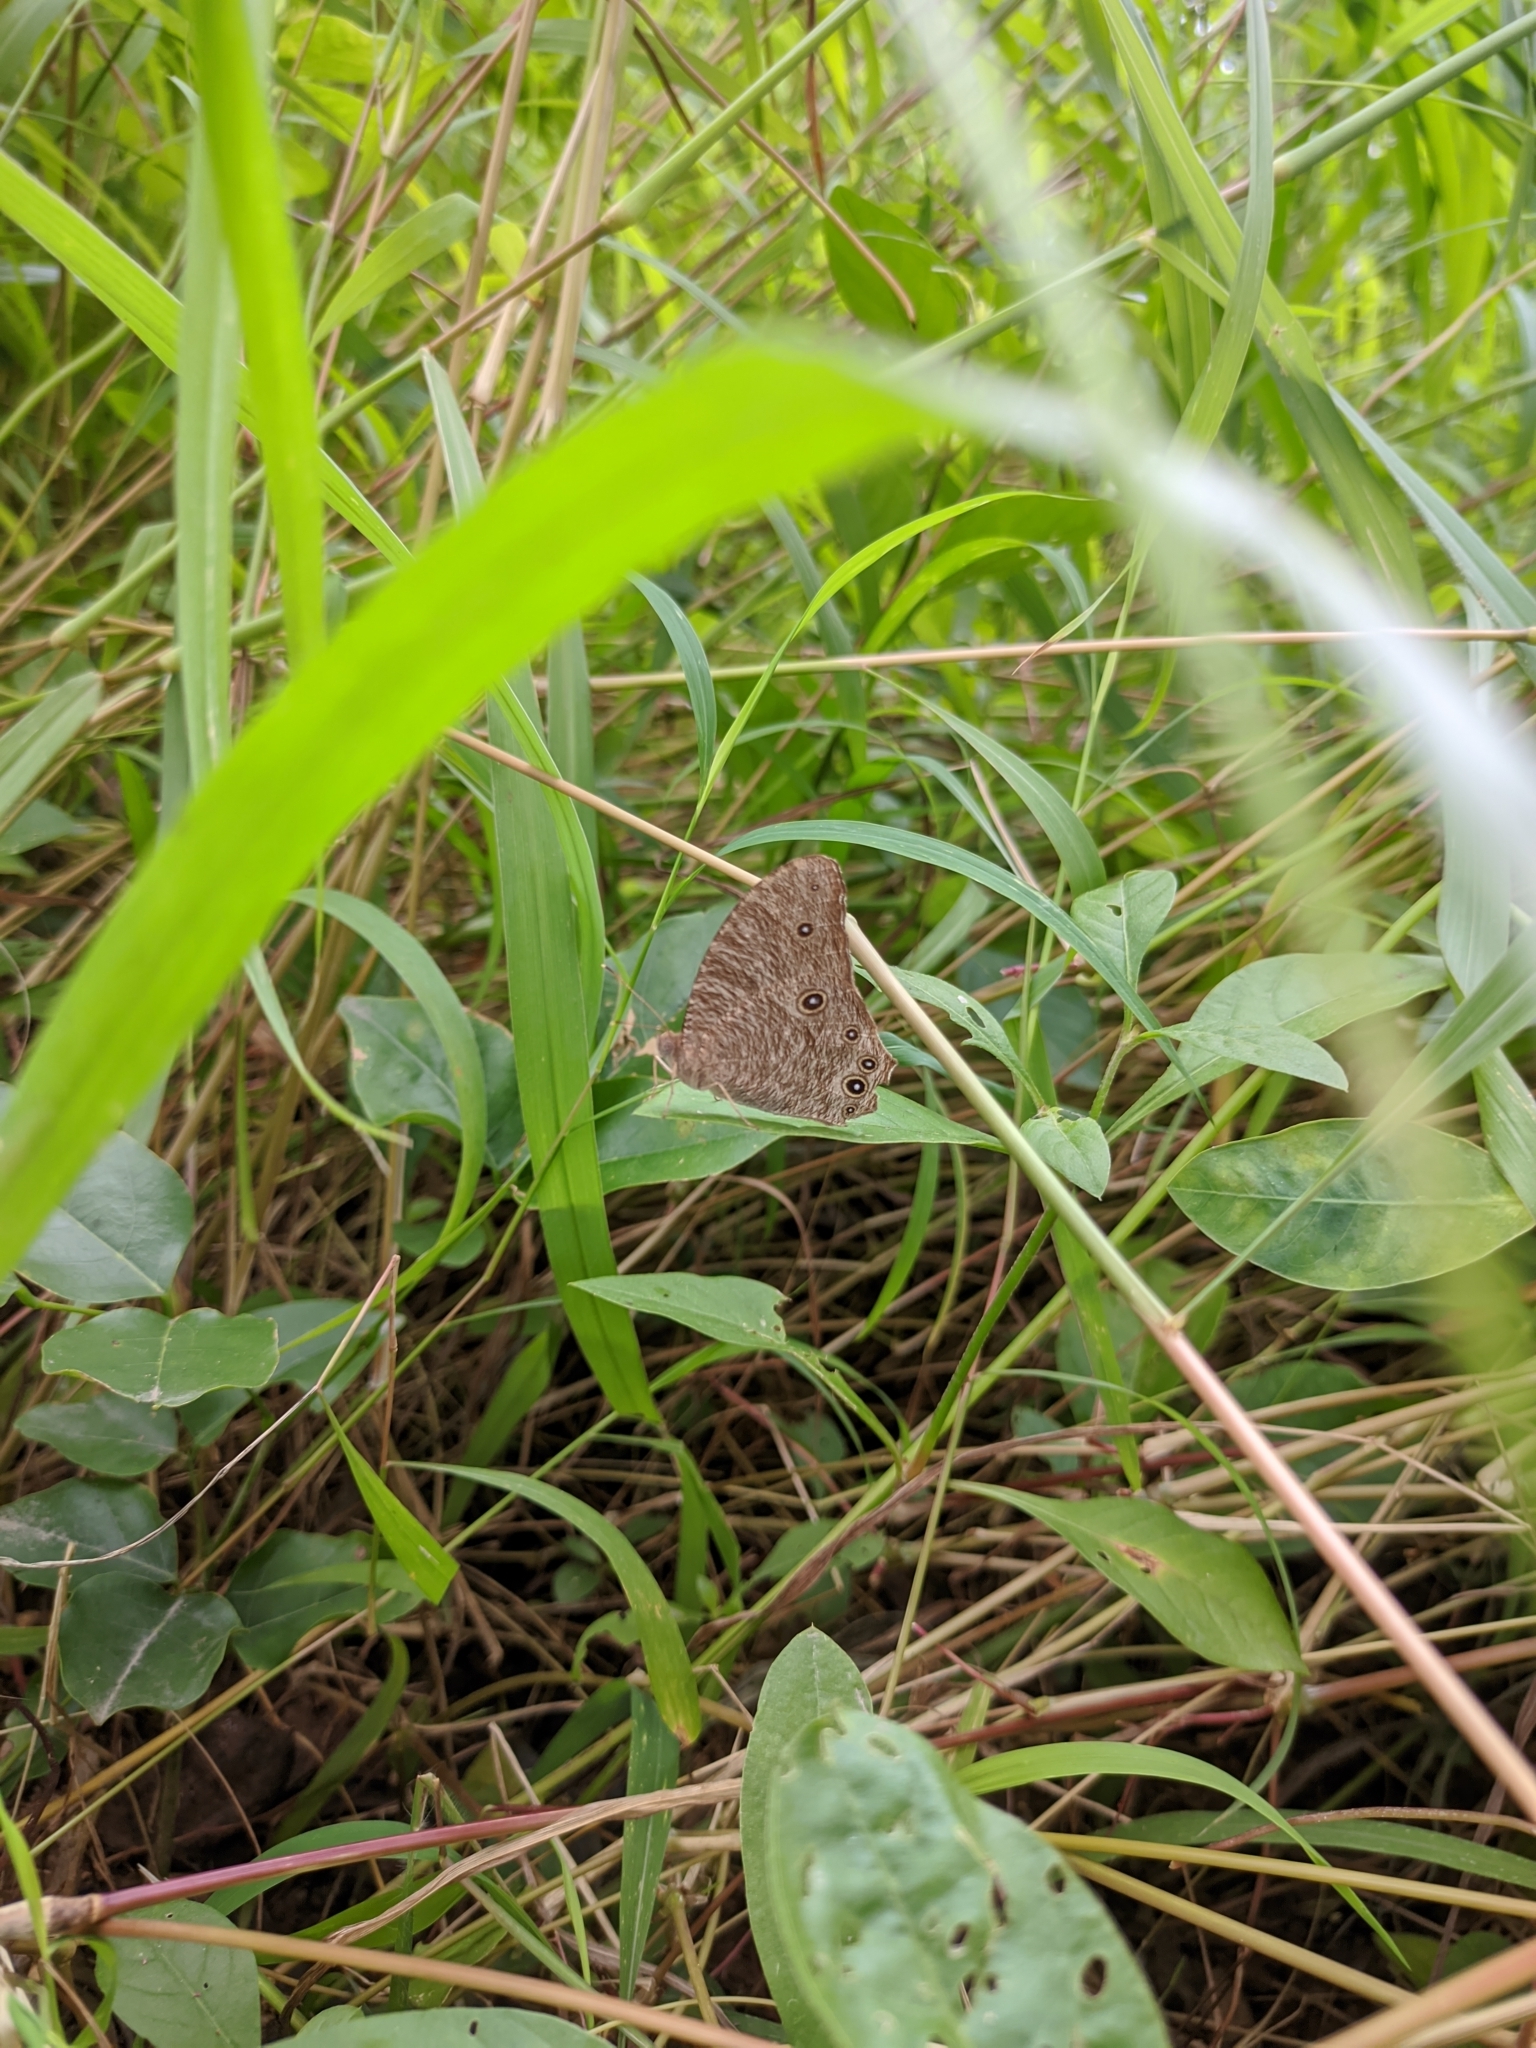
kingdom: Animalia
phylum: Arthropoda
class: Insecta
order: Lepidoptera
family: Nymphalidae
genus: Melanitis
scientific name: Melanitis leda
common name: Twilight brown
